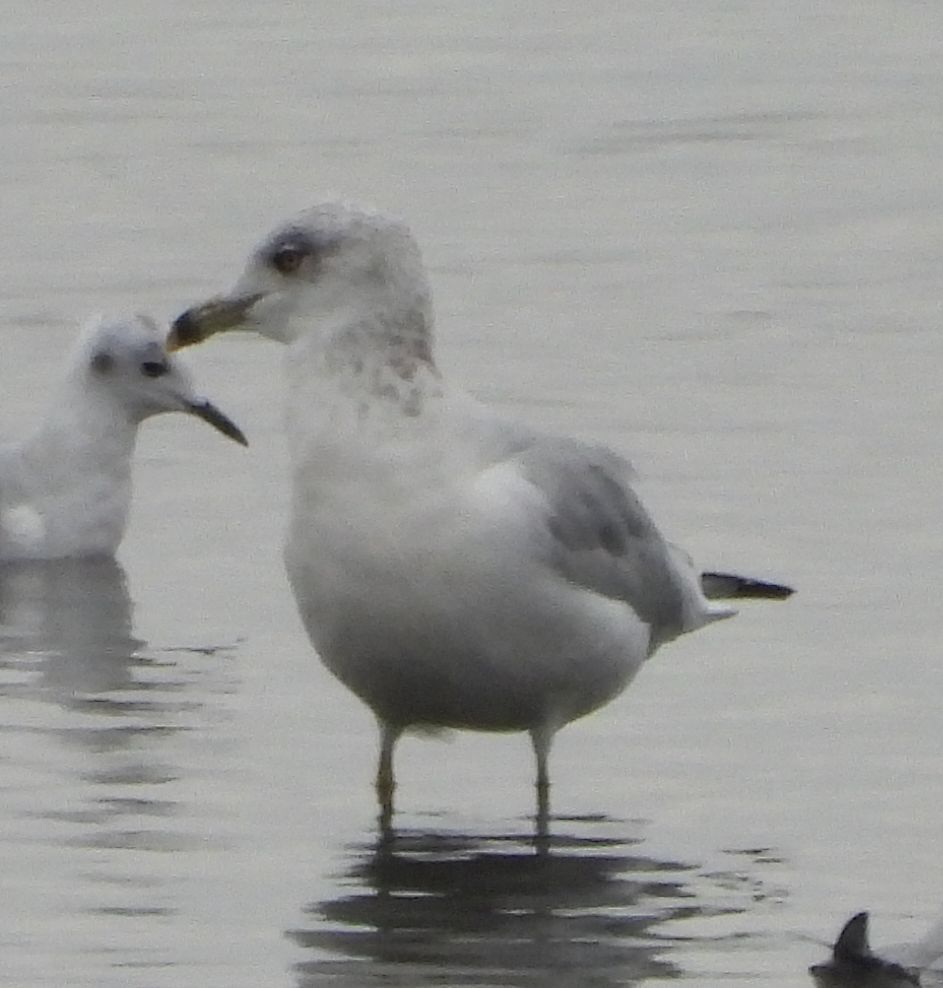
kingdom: Animalia
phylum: Chordata
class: Aves
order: Charadriiformes
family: Laridae
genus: Larus
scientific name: Larus delawarensis
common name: Ring-billed gull
